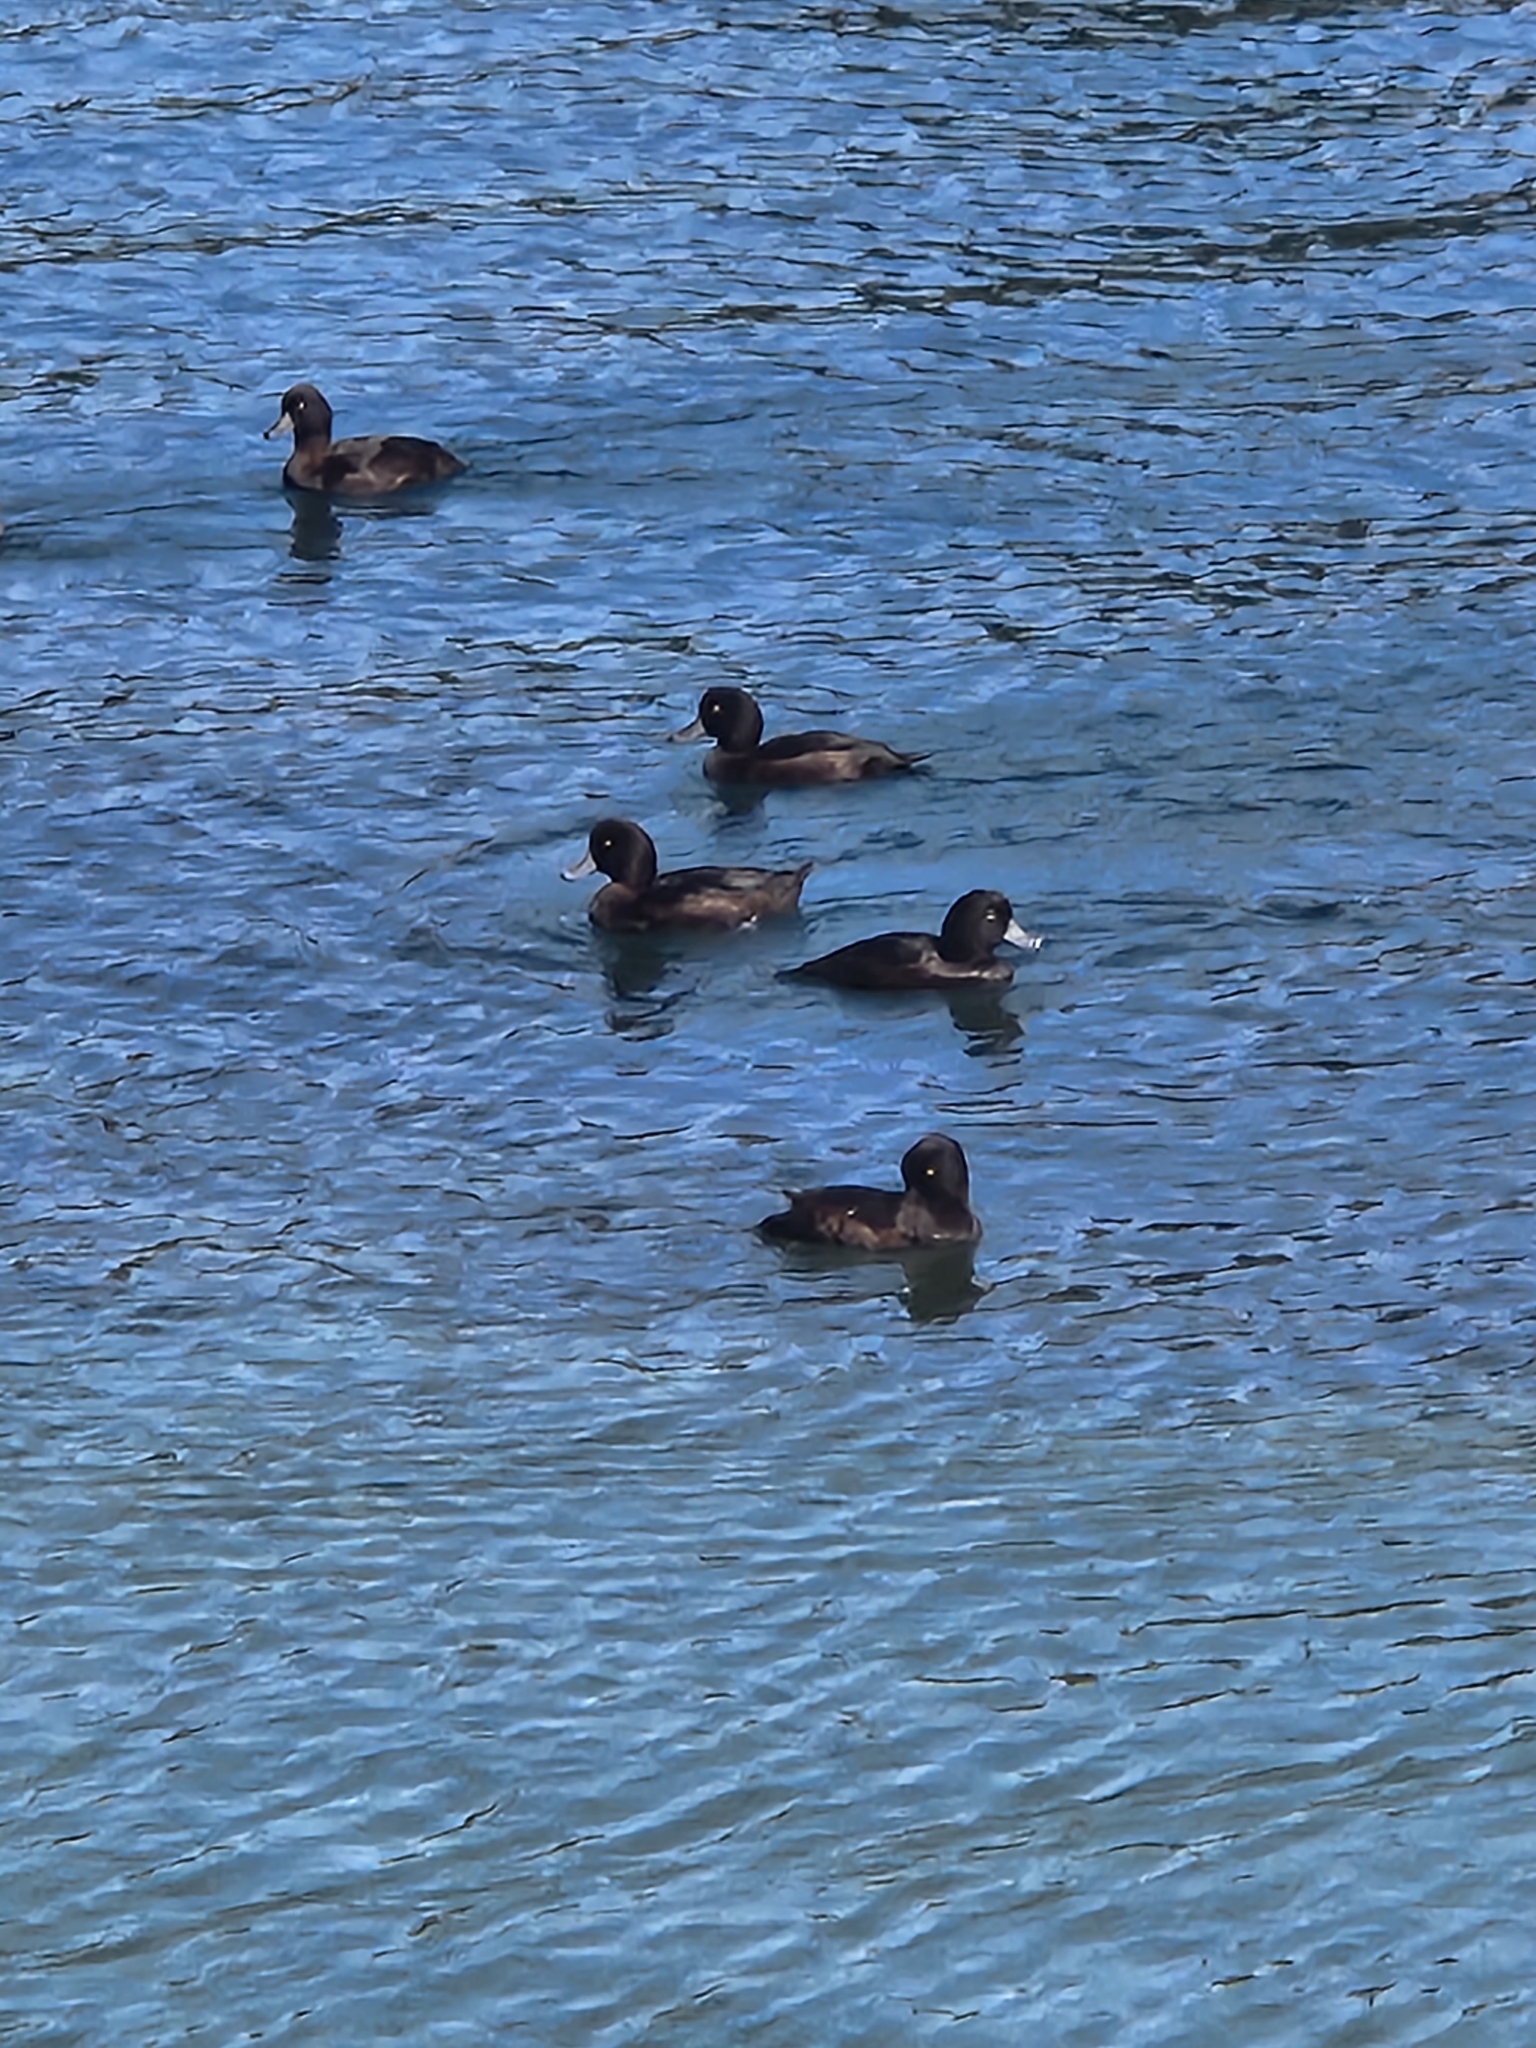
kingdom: Animalia
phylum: Chordata
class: Aves
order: Anseriformes
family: Anatidae
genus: Aythya
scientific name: Aythya novaeseelandiae
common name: New zealand scaup
